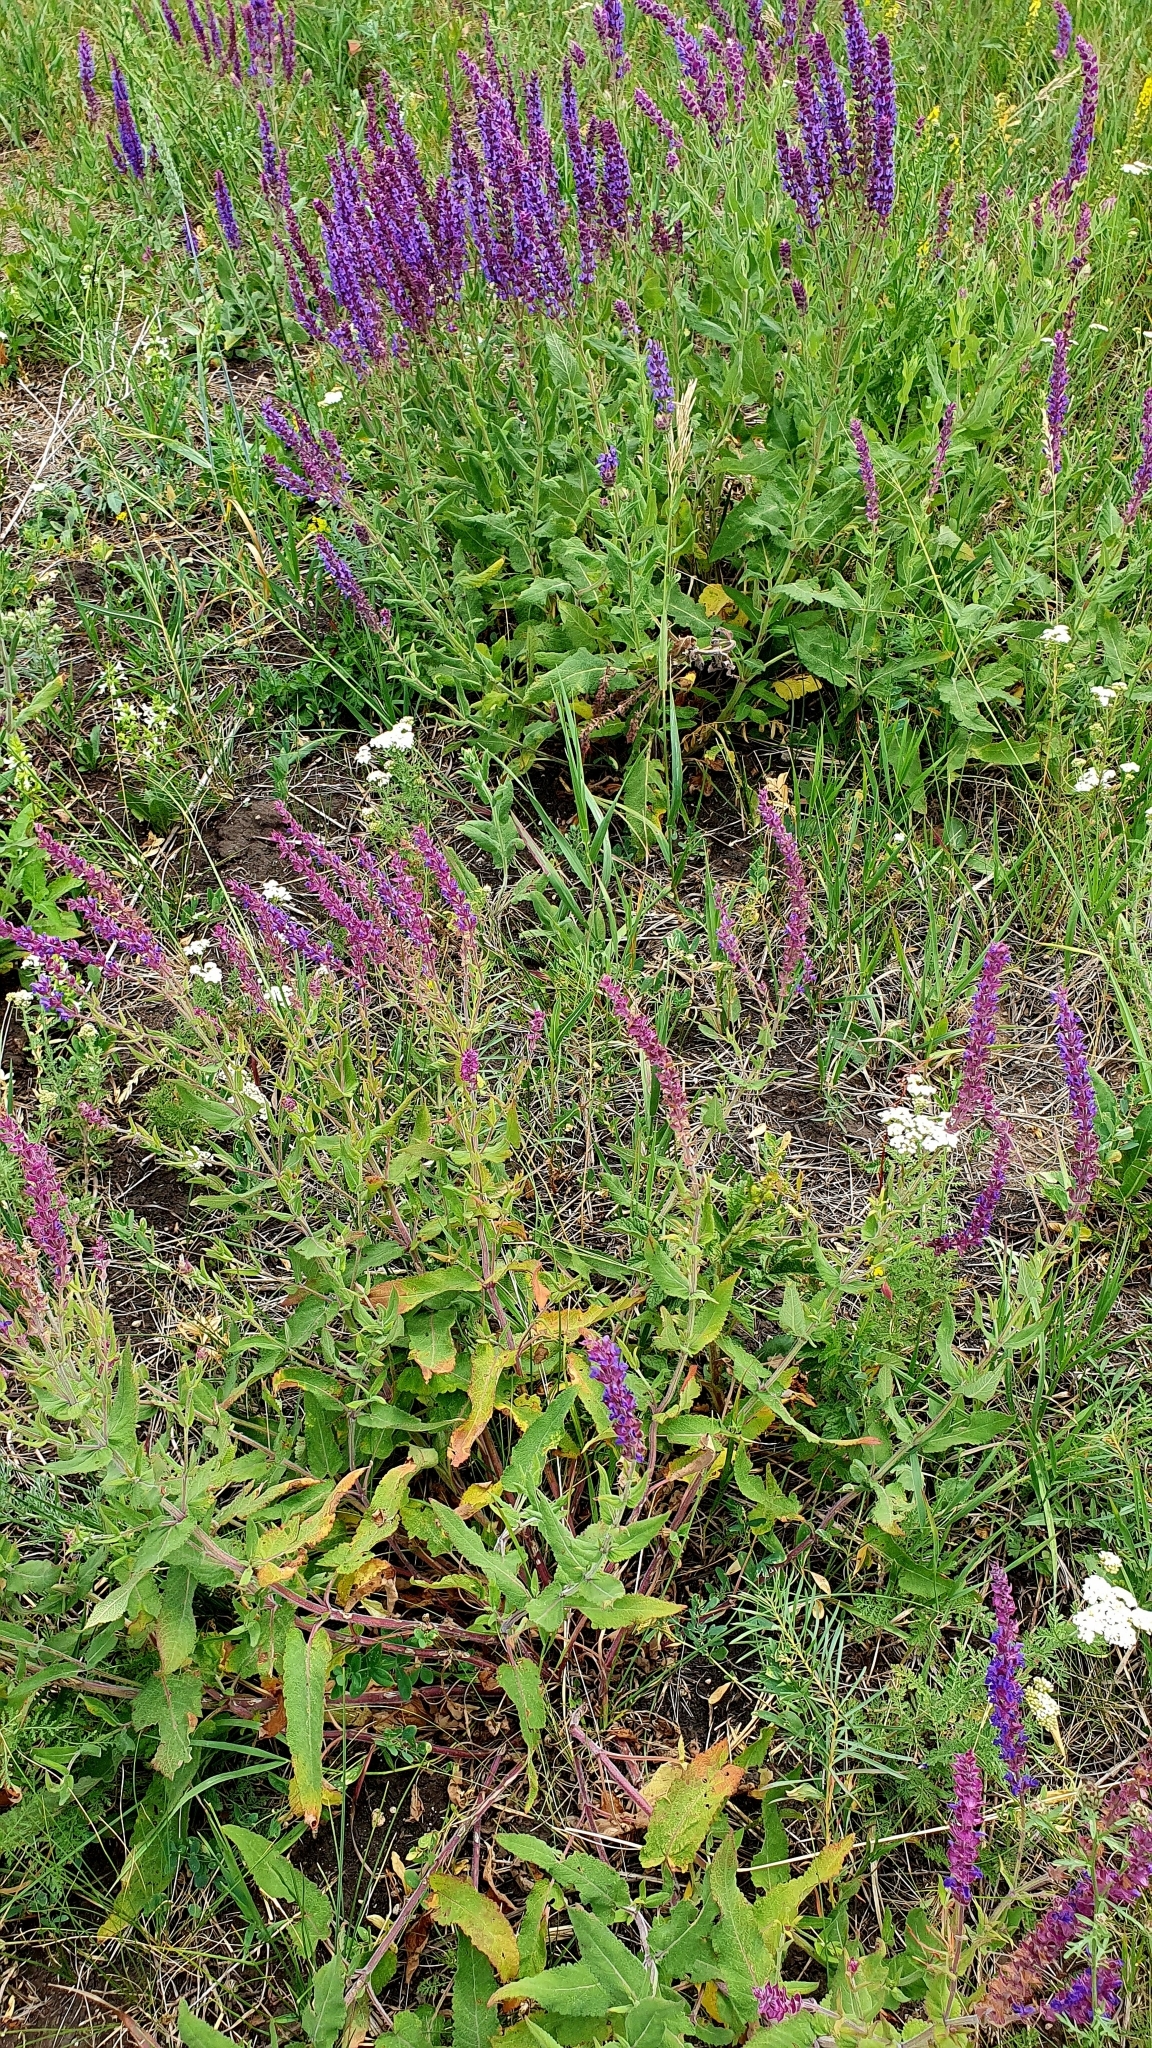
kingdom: Plantae
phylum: Tracheophyta
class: Magnoliopsida
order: Lamiales
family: Lamiaceae
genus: Salvia
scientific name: Salvia nemorosa
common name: Balkan clary
